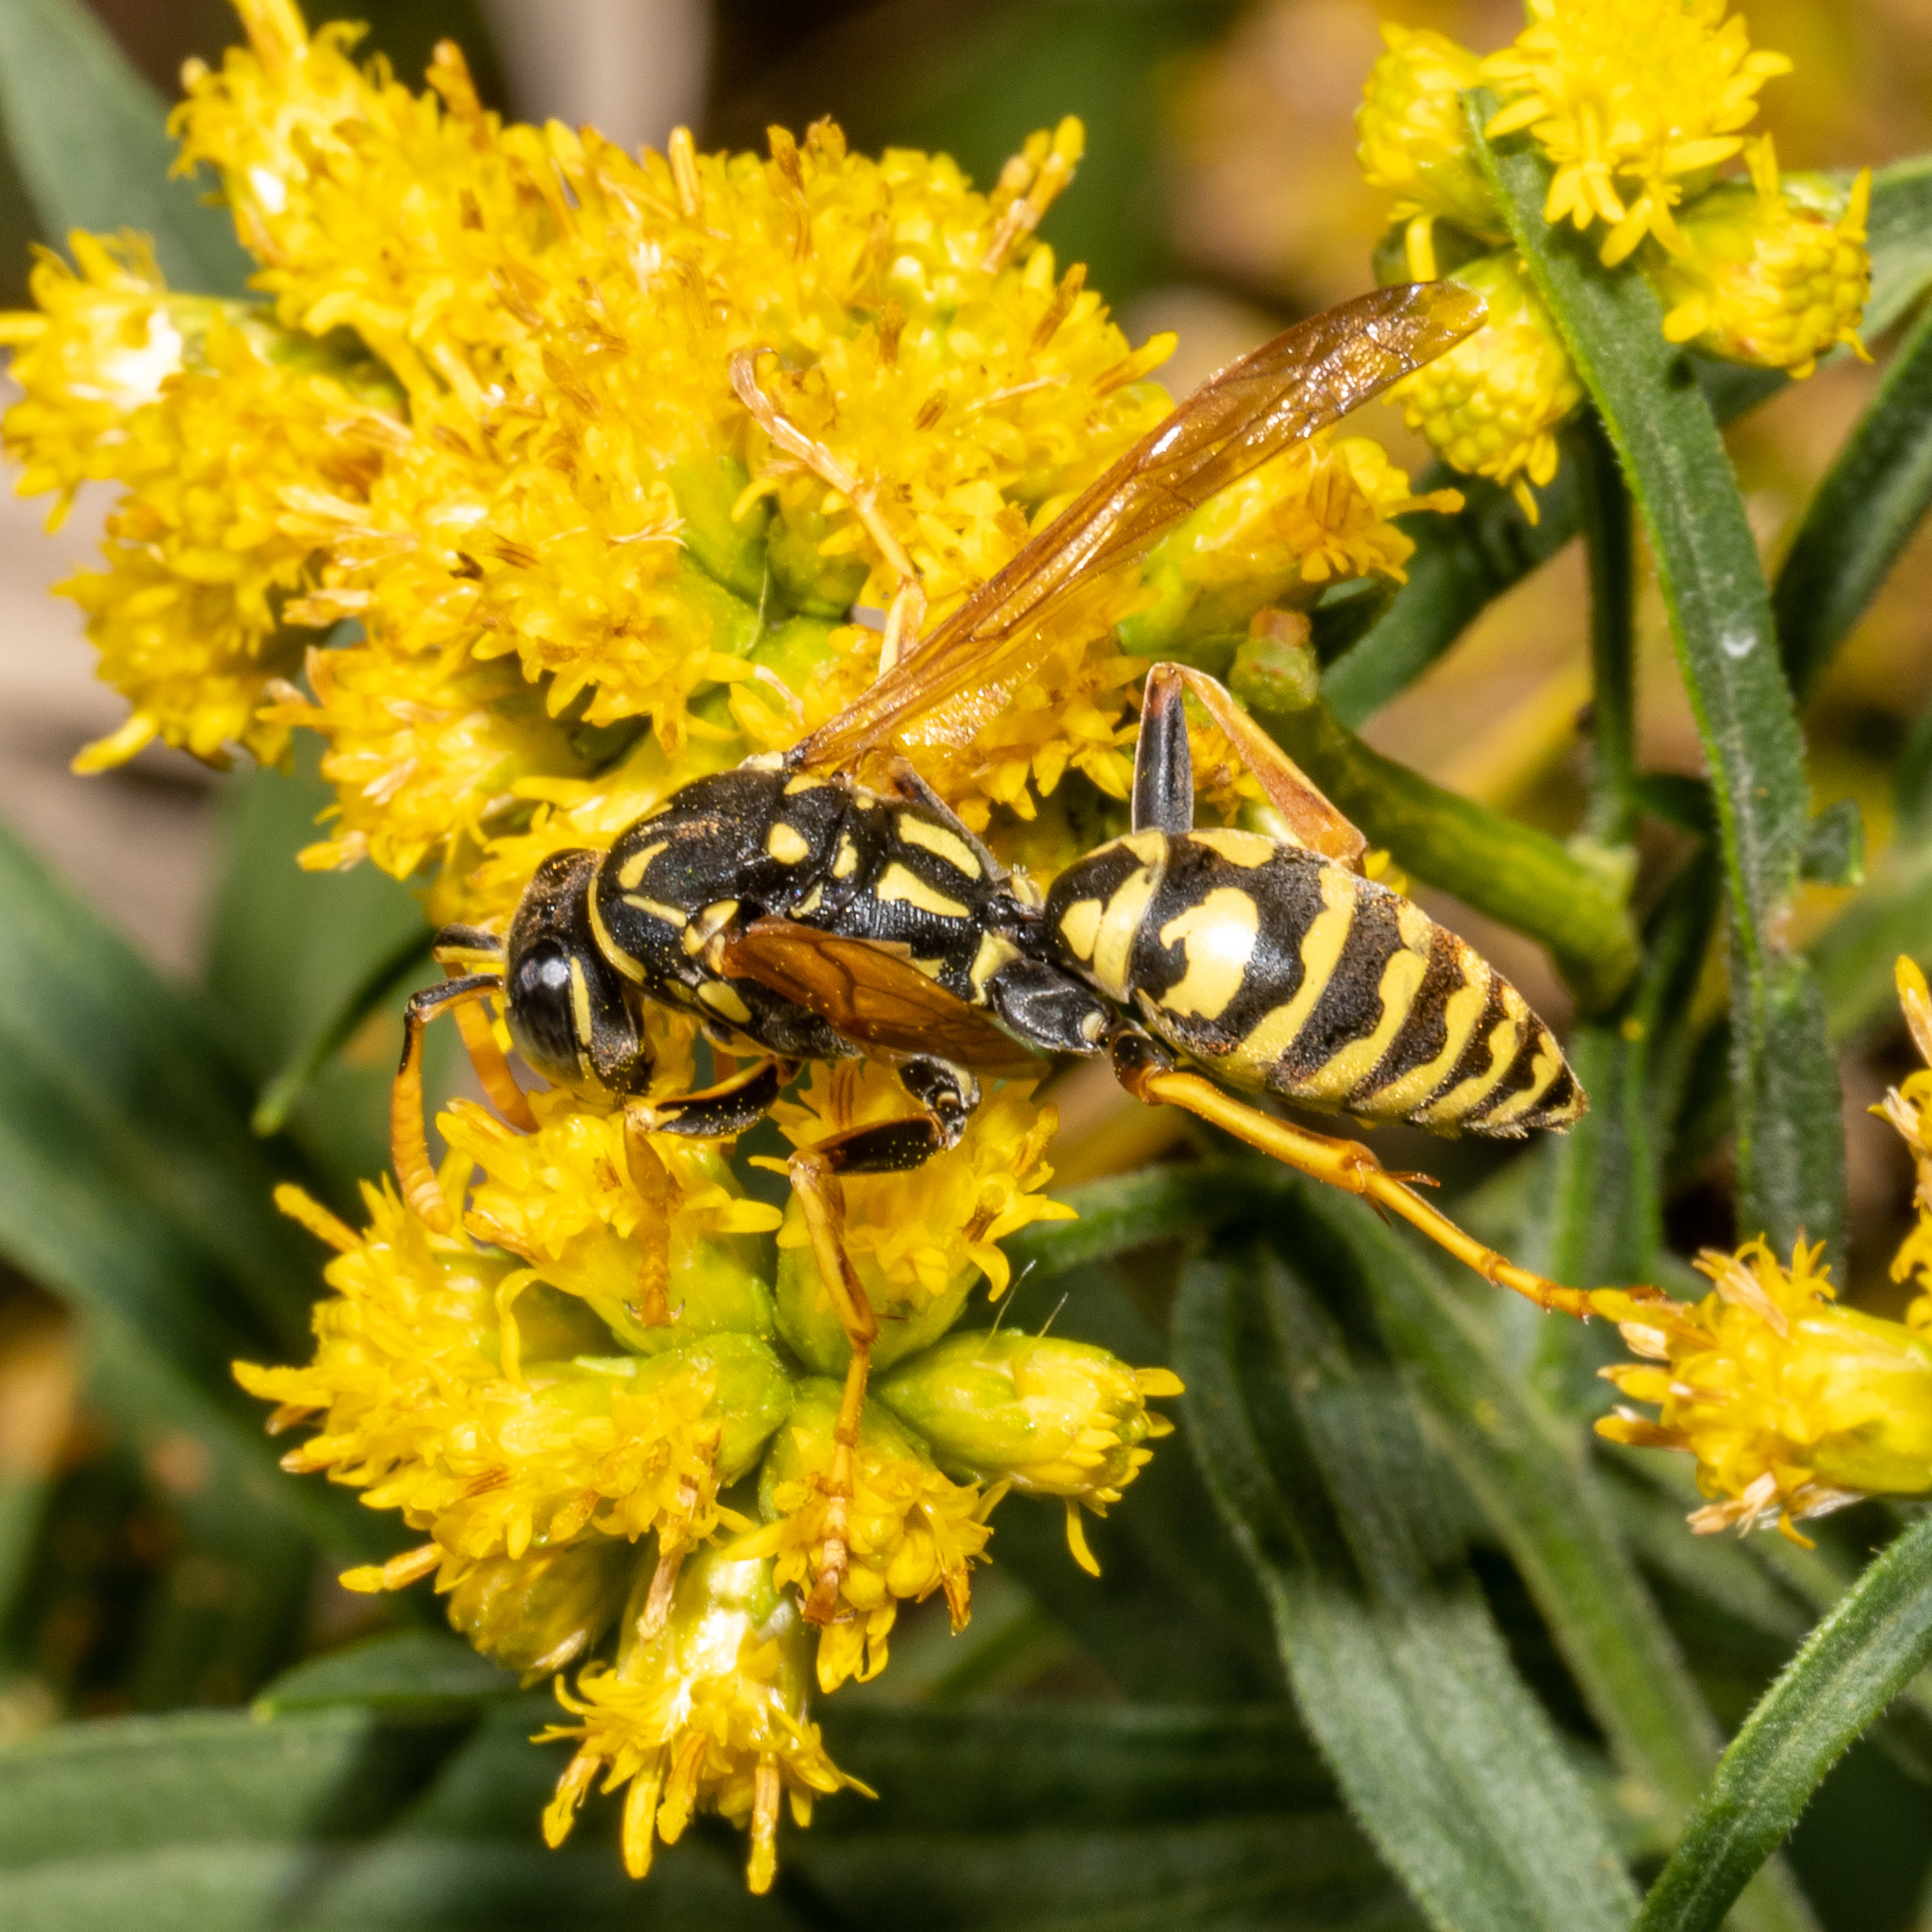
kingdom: Animalia
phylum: Arthropoda
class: Insecta
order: Hymenoptera
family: Eumenidae
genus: Polistes
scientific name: Polistes dominula
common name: Paper wasp
